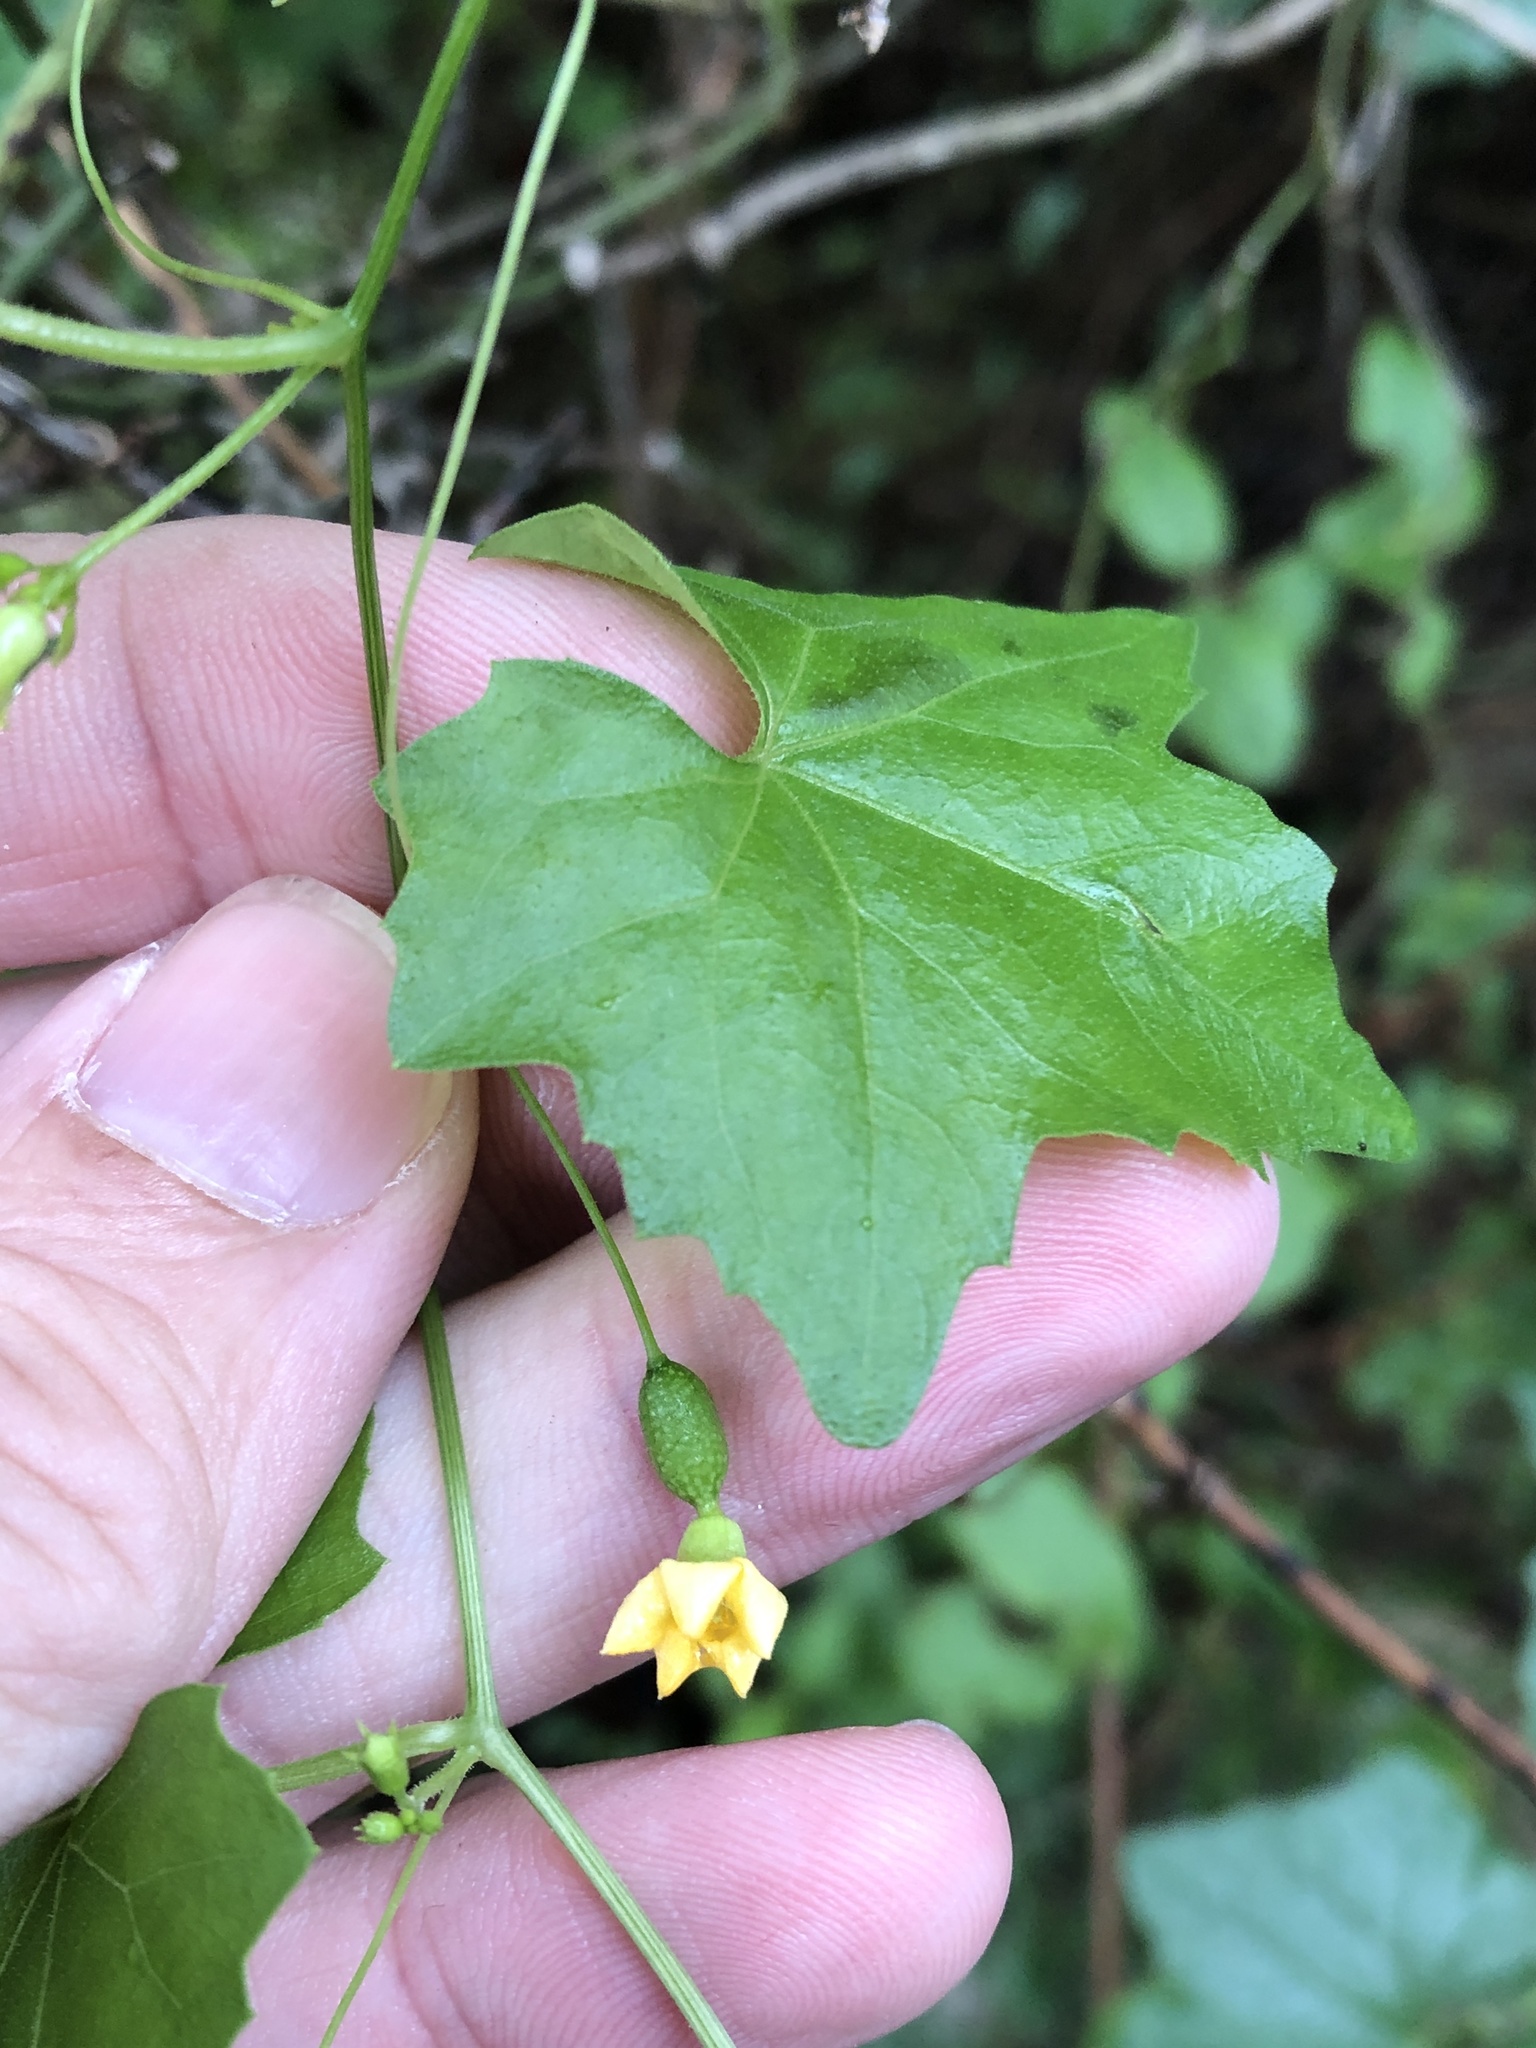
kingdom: Plantae
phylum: Tracheophyta
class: Magnoliopsida
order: Cucurbitales
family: Cucurbitaceae
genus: Melothria
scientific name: Melothria pendula
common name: Creeping-cucumber
